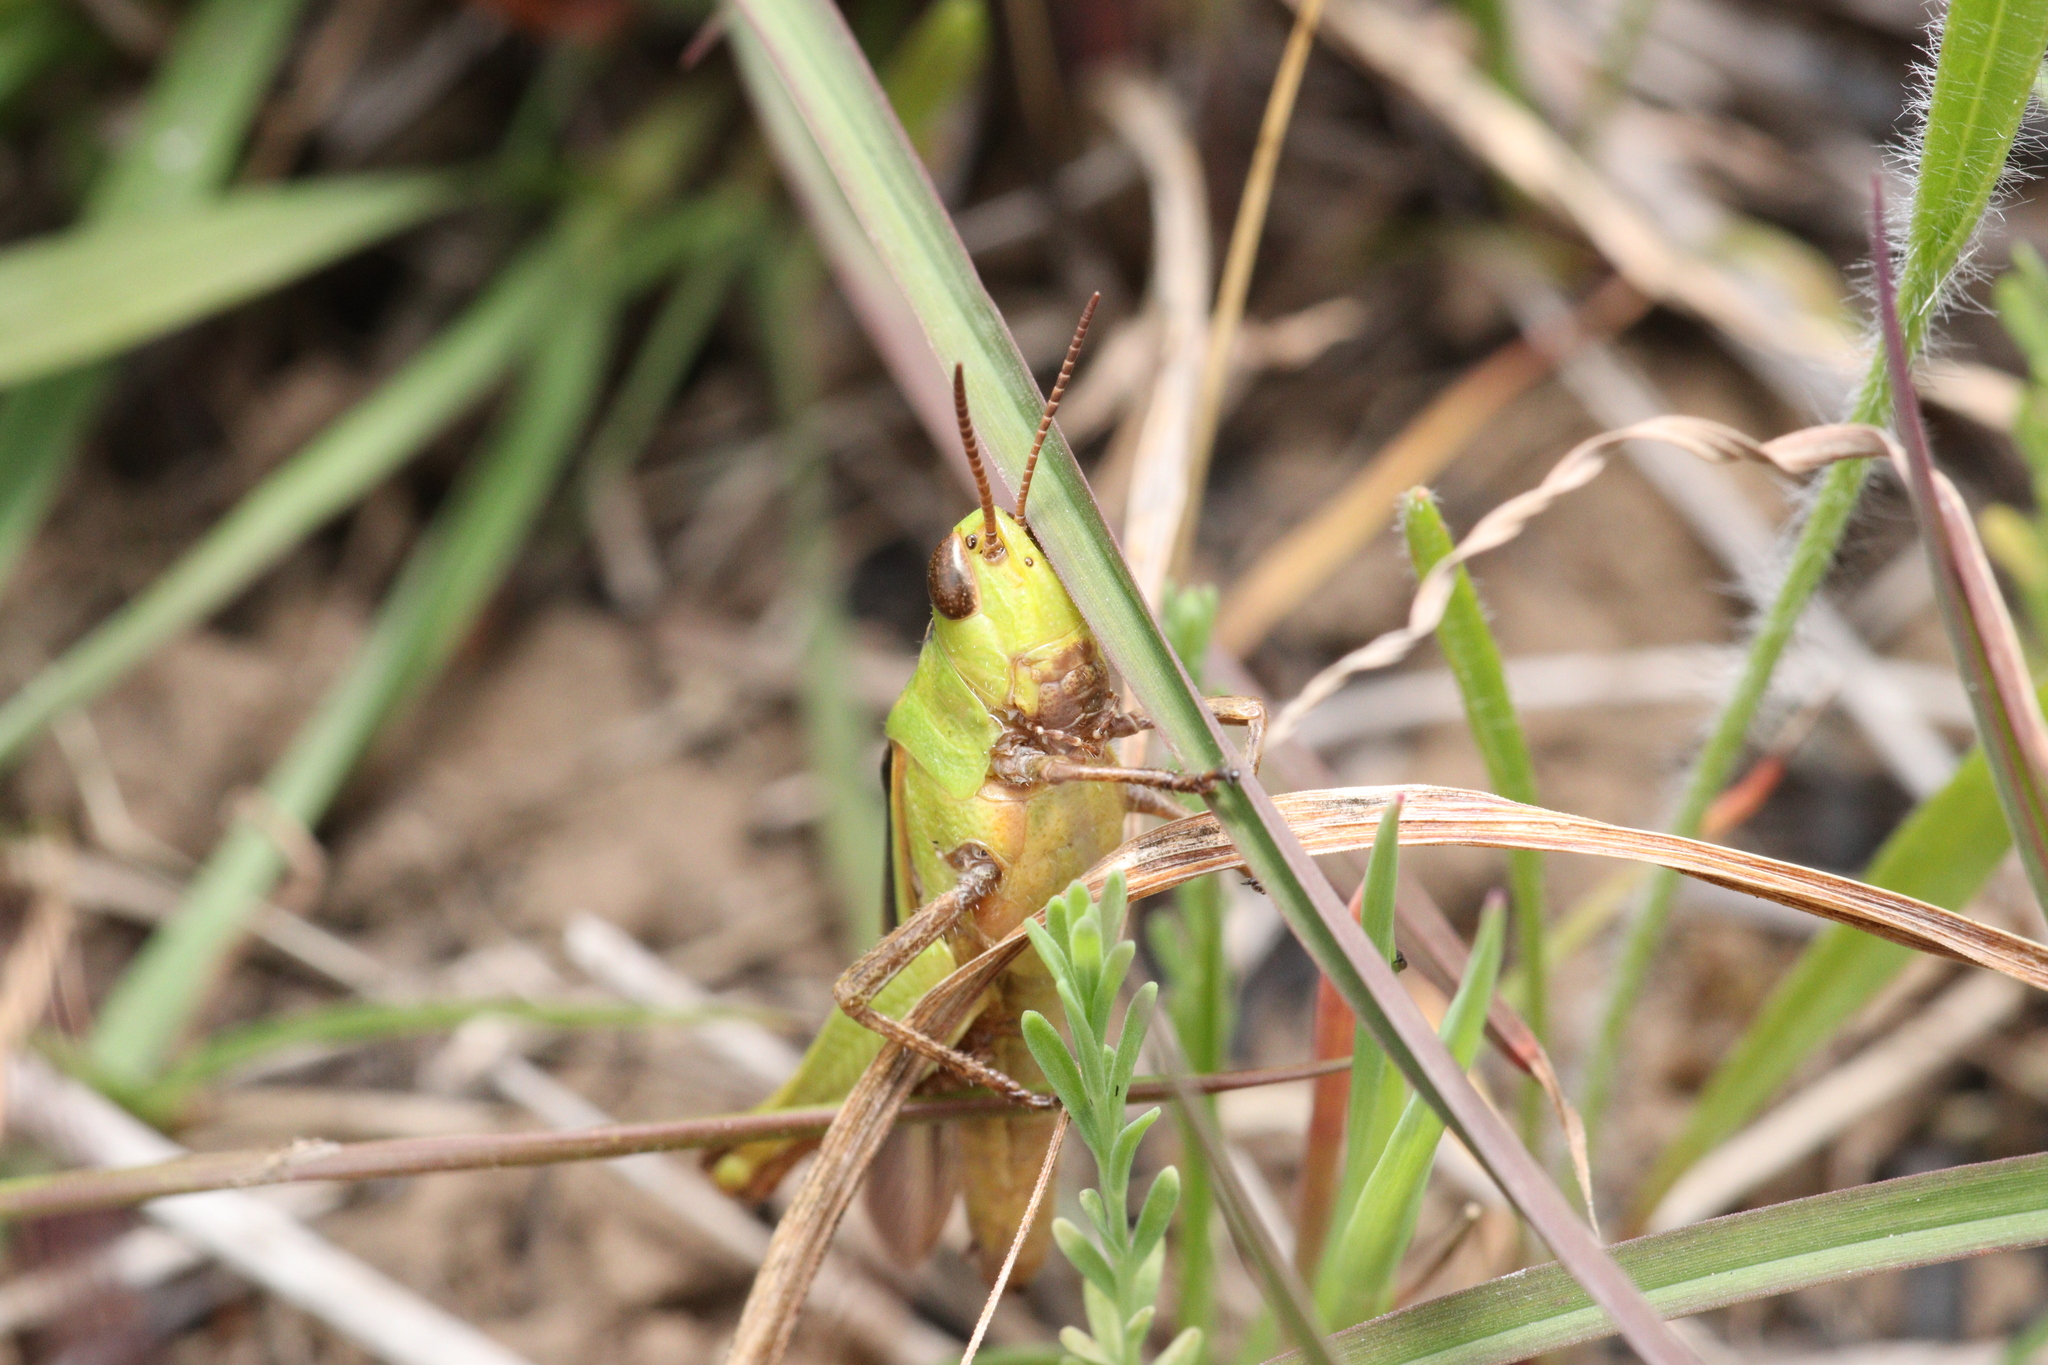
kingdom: Animalia
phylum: Arthropoda
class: Insecta
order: Orthoptera
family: Acrididae
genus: Schizobothrus
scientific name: Schizobothrus flavovittatus
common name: Disappearing grasshopper
